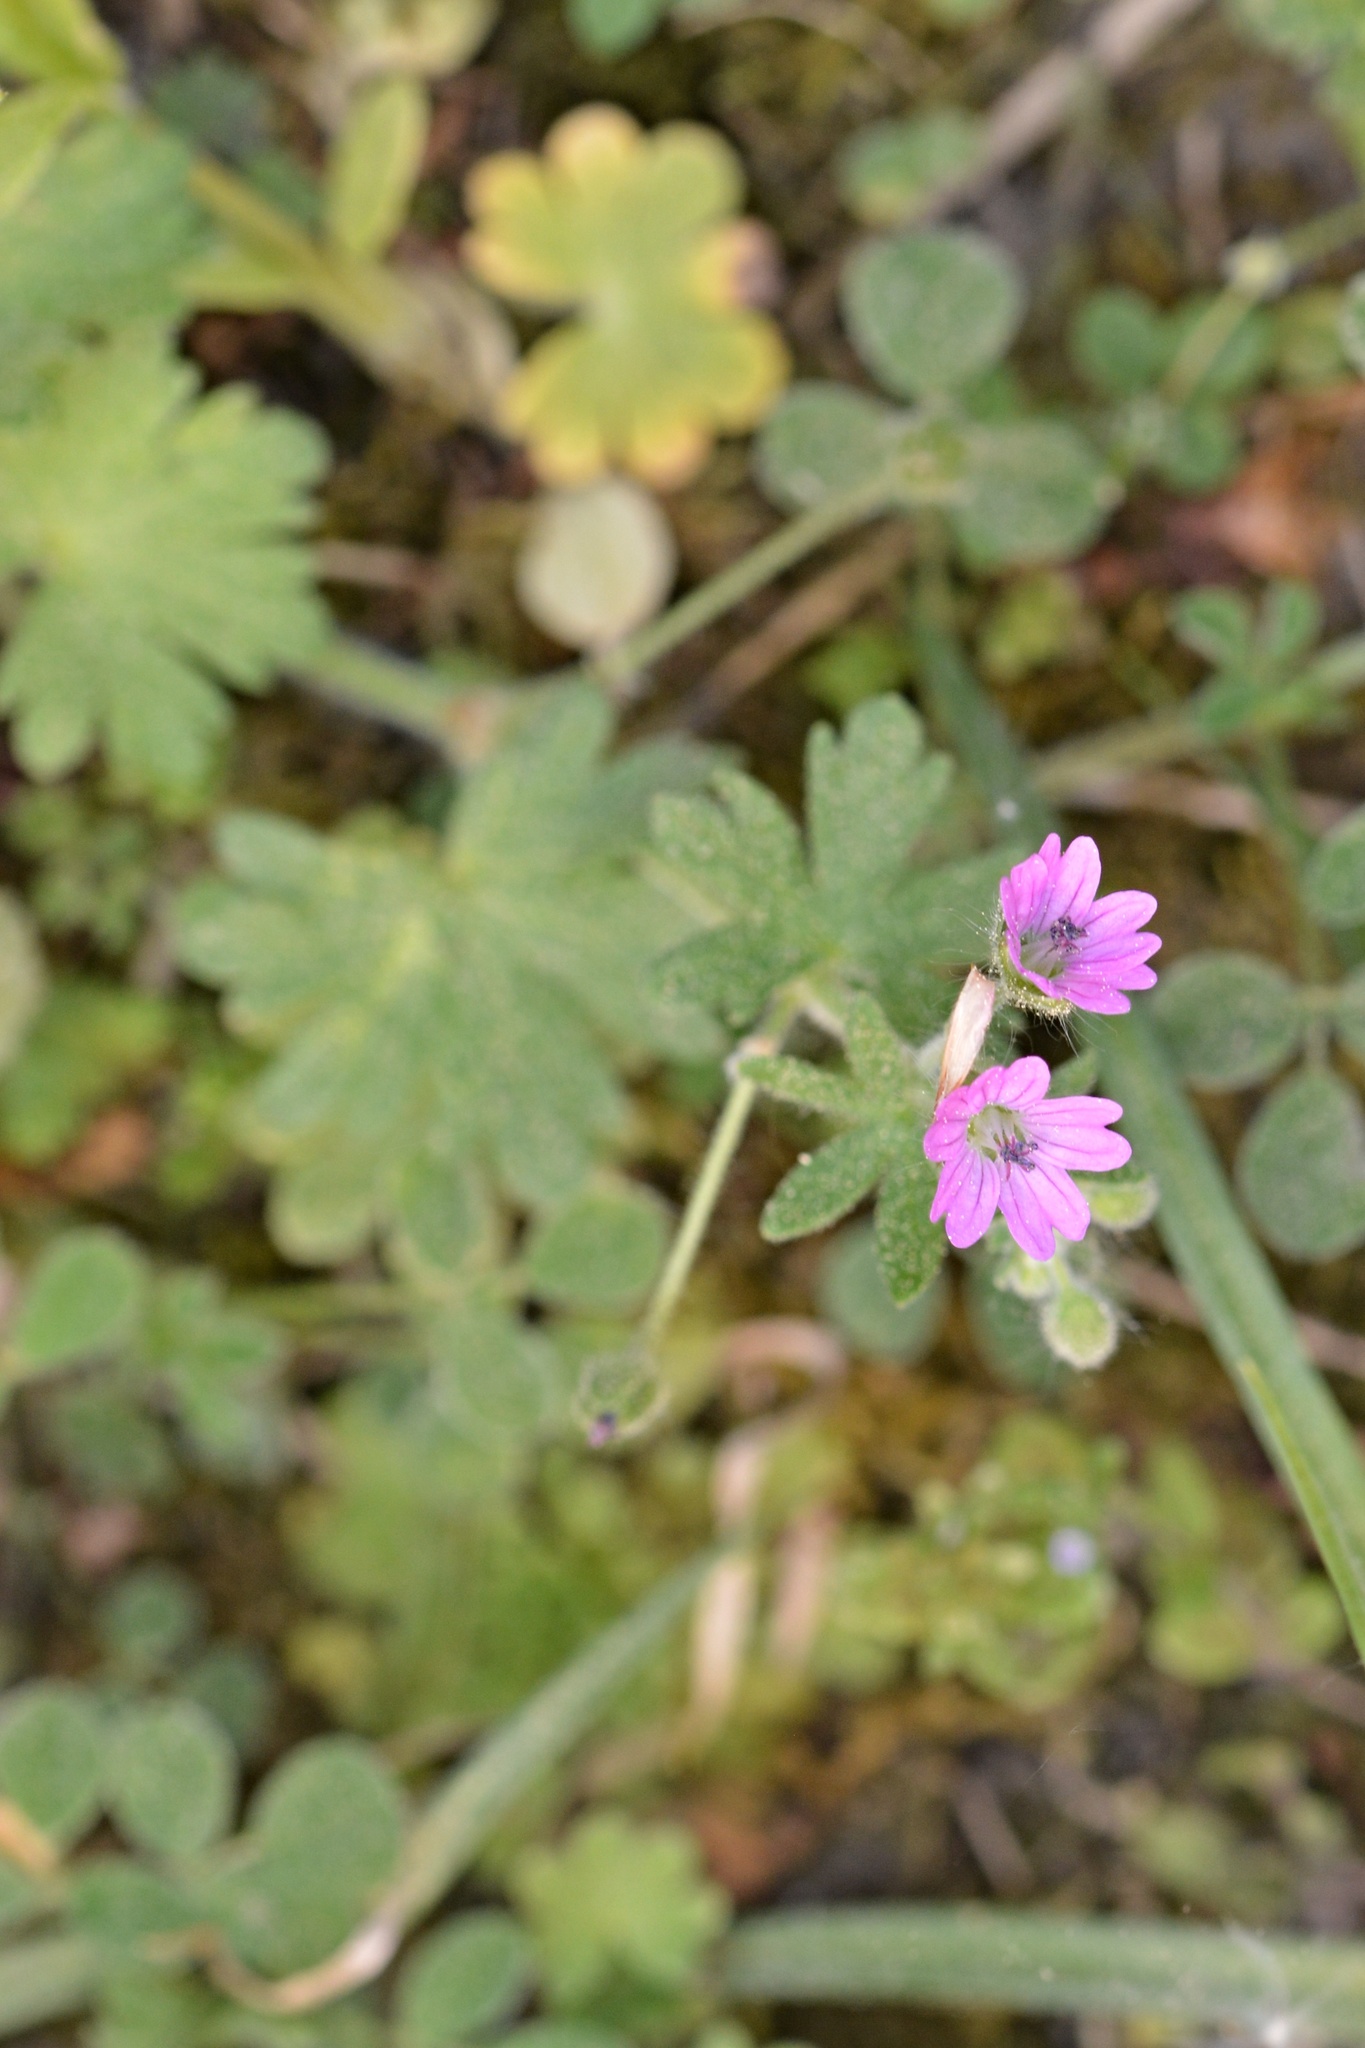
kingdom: Plantae
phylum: Tracheophyta
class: Magnoliopsida
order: Geraniales
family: Geraniaceae
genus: Geranium
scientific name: Geranium molle
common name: Dove's-foot crane's-bill
